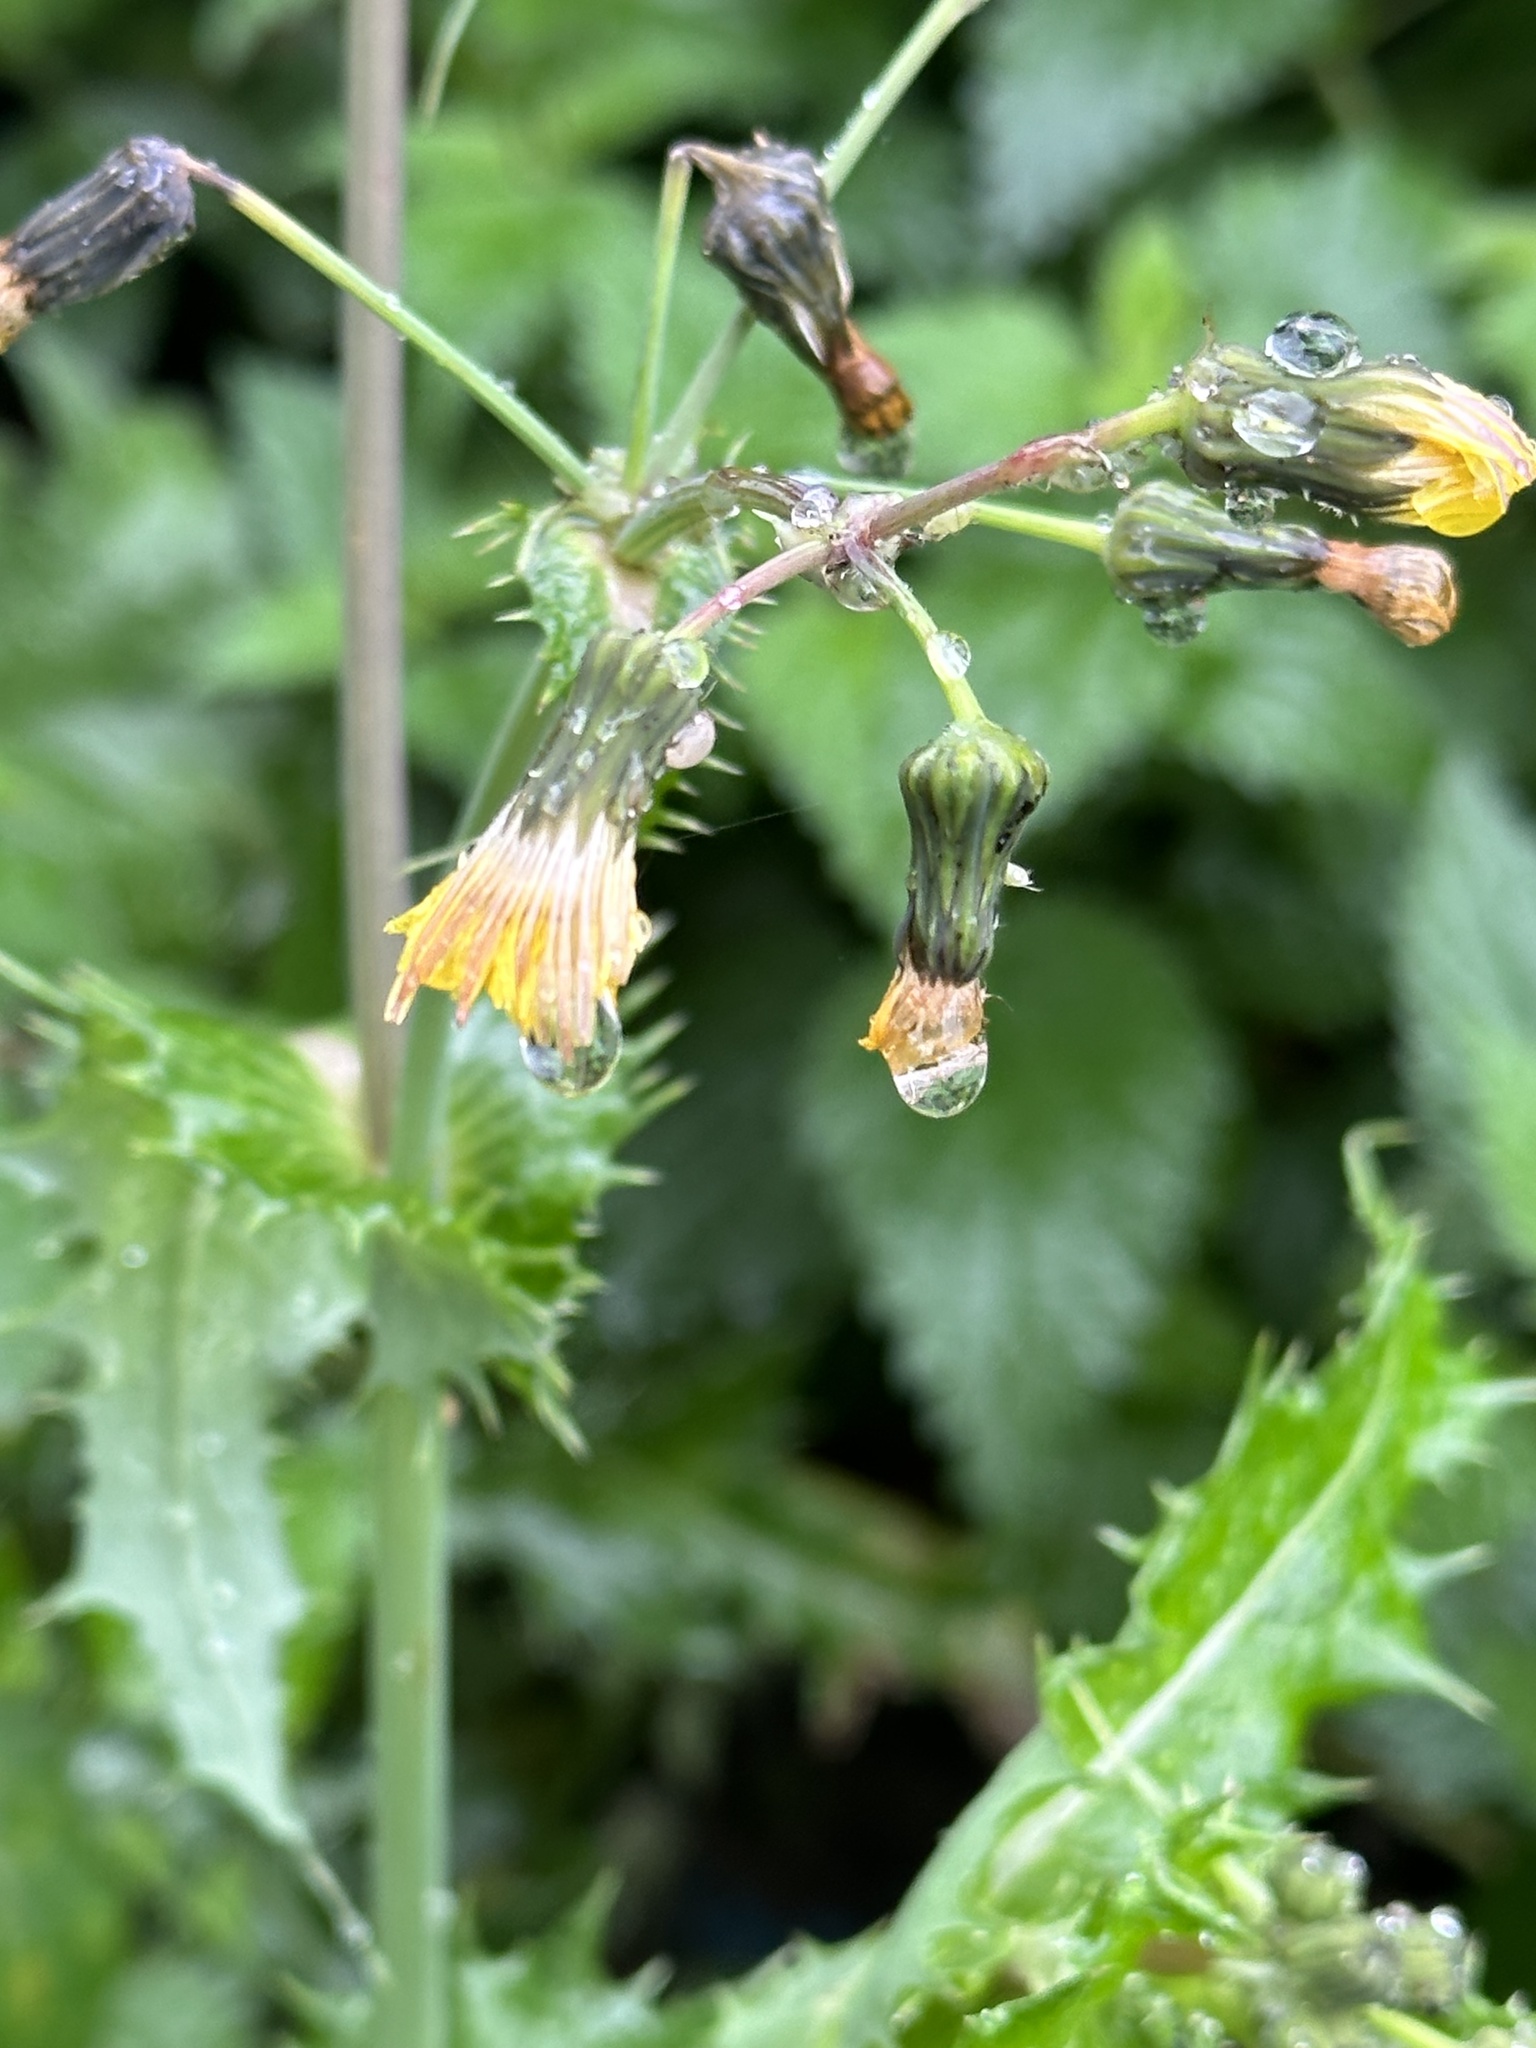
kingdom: Plantae
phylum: Tracheophyta
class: Magnoliopsida
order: Asterales
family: Asteraceae
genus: Sonchus
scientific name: Sonchus asper
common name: Prickly sow-thistle
